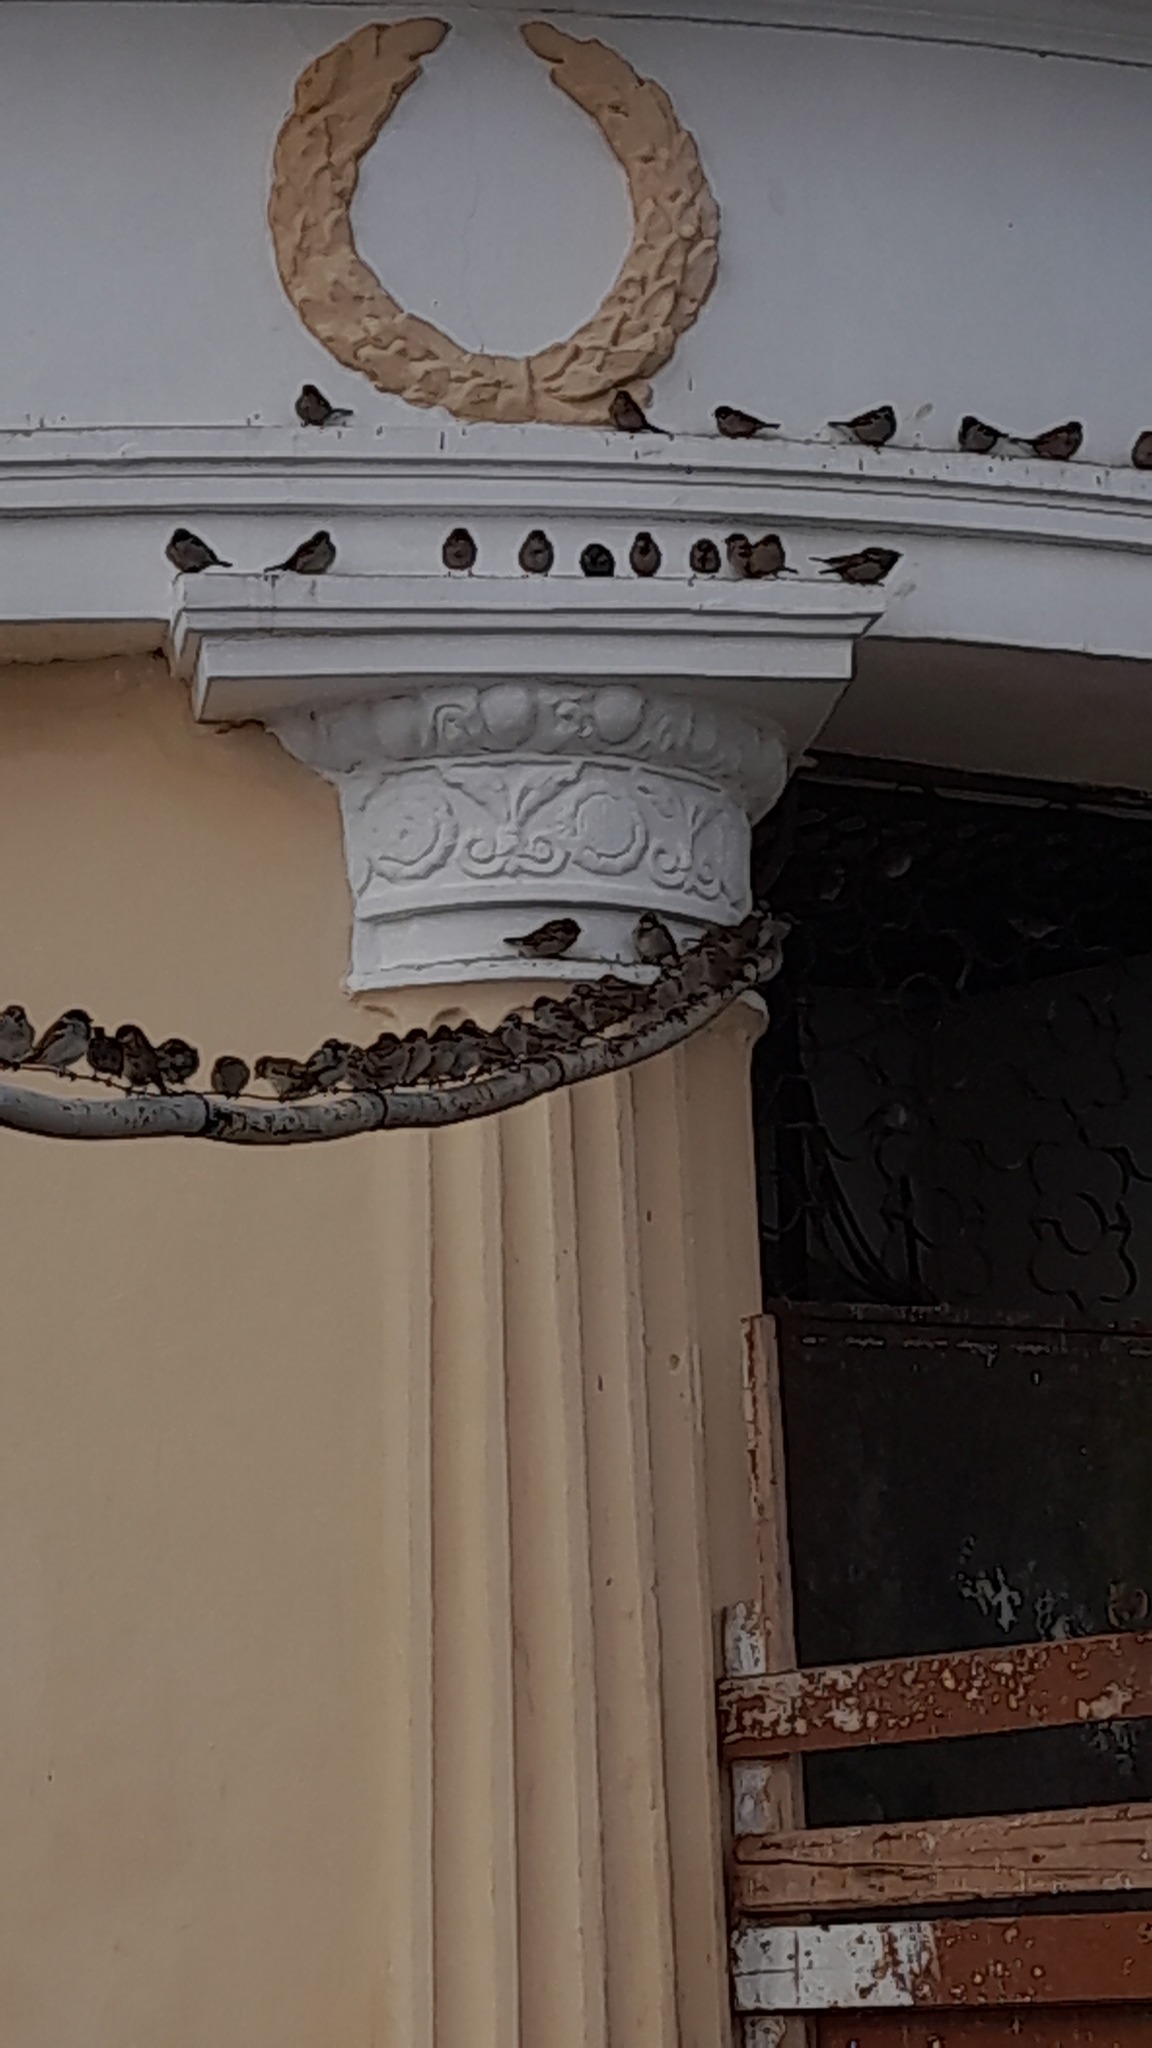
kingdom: Animalia
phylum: Chordata
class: Aves
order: Passeriformes
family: Passeridae
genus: Passer
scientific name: Passer domesticus
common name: House sparrow
